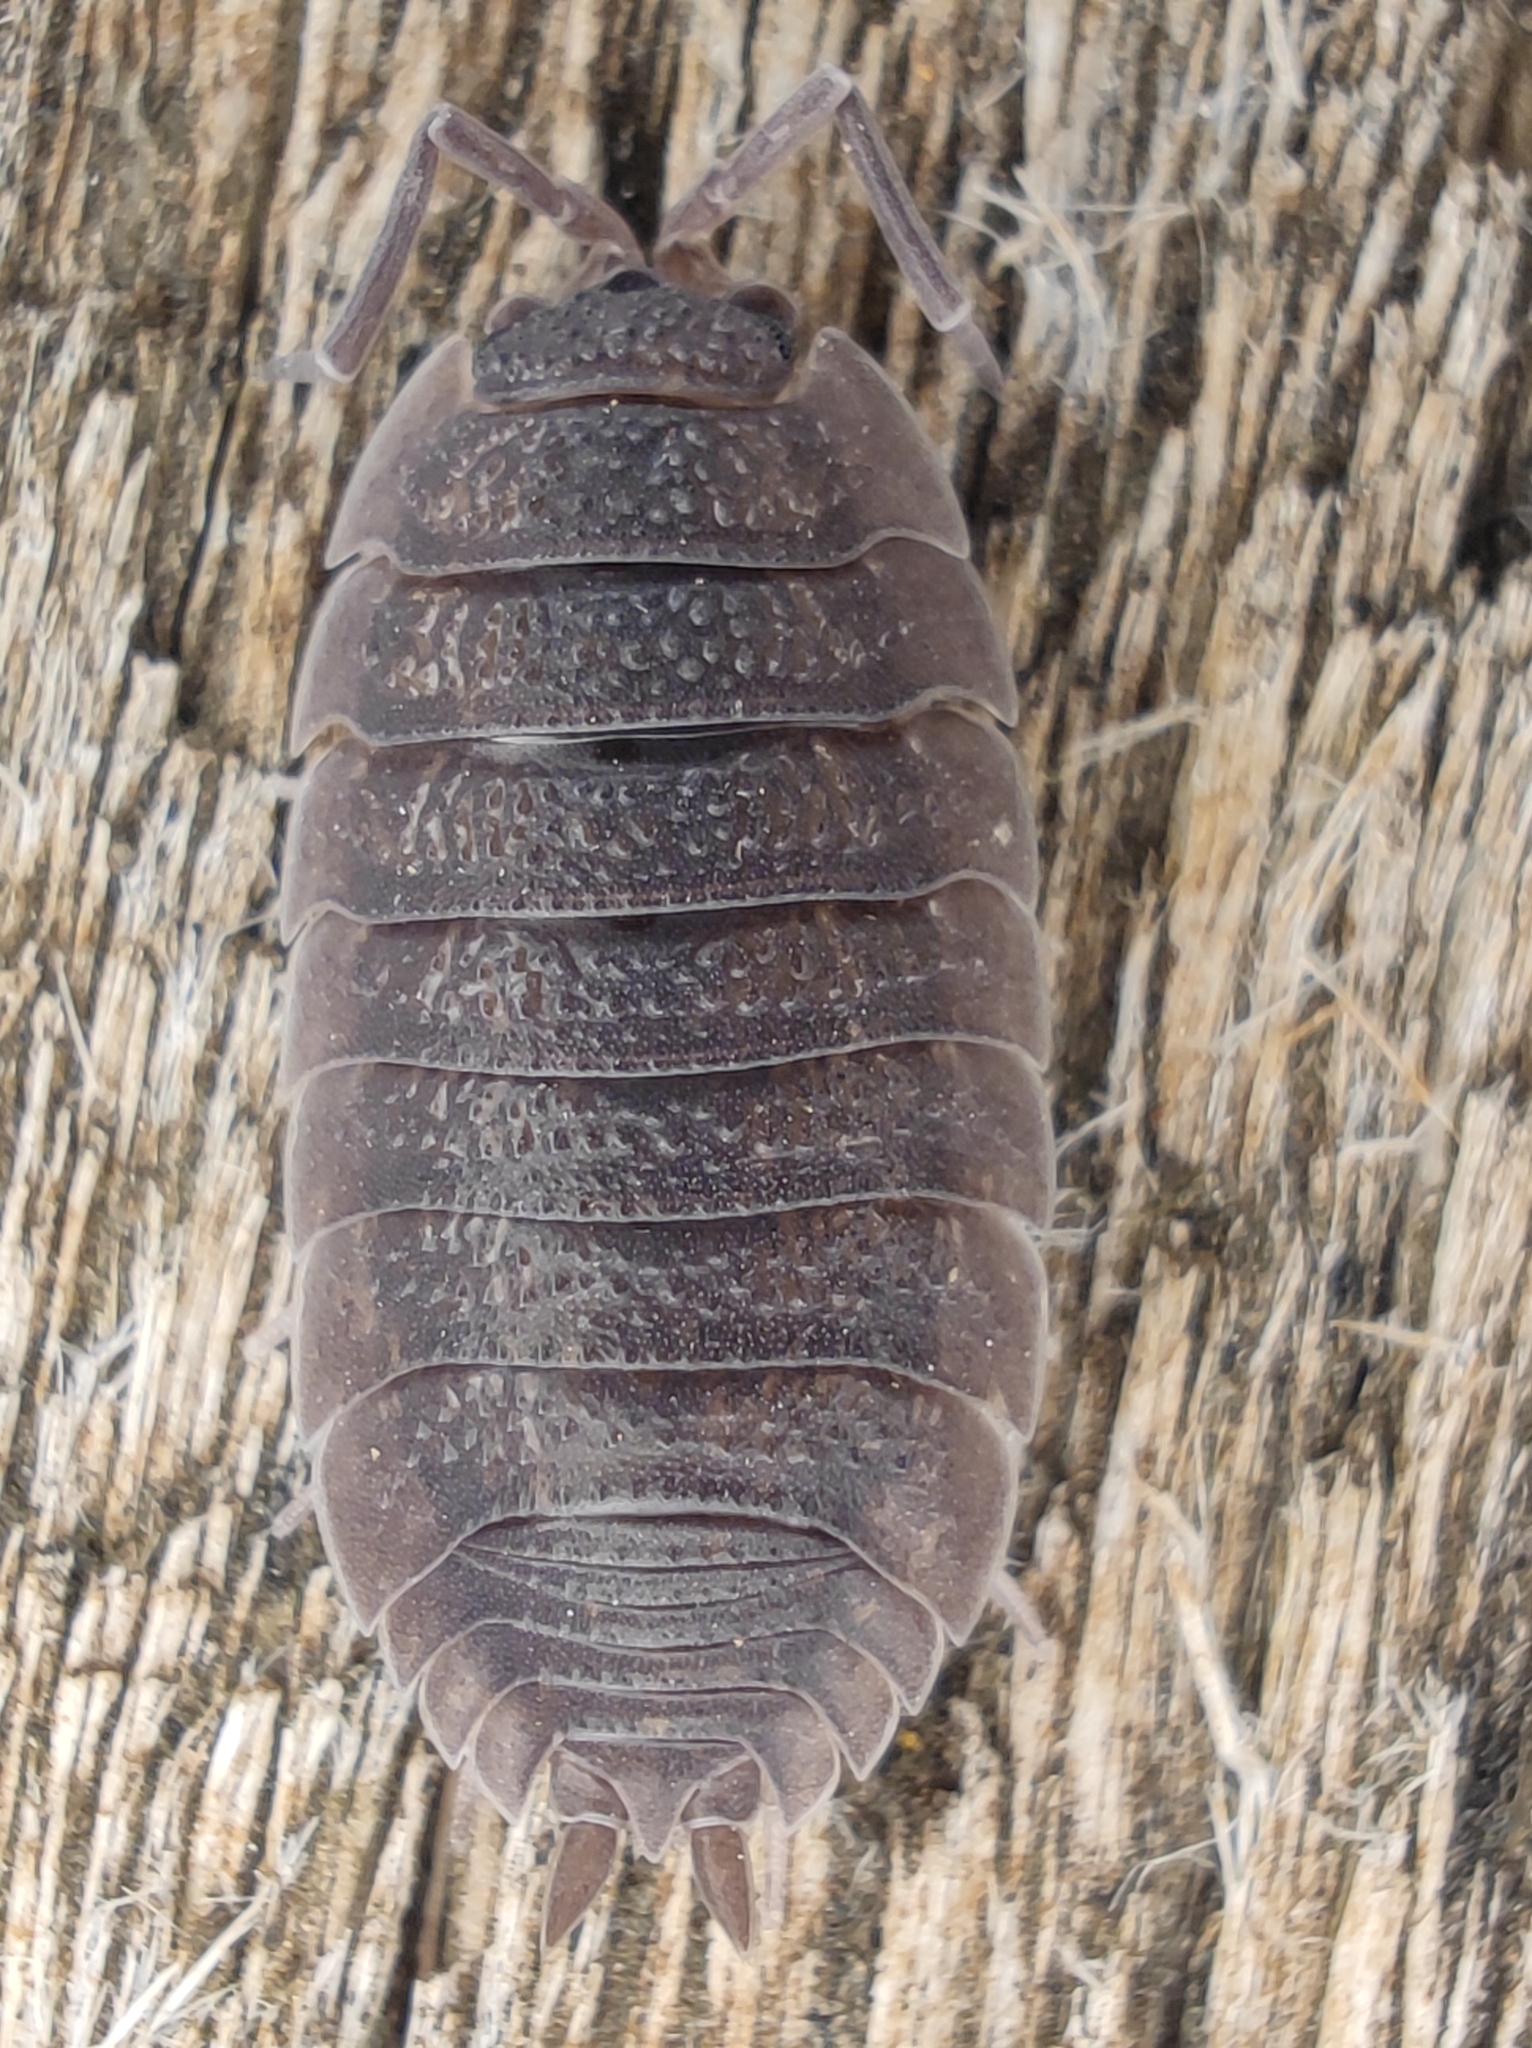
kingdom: Animalia
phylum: Arthropoda
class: Malacostraca
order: Isopoda
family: Porcellionidae
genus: Porcellio
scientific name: Porcellio scaber
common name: Common rough woodlouse
